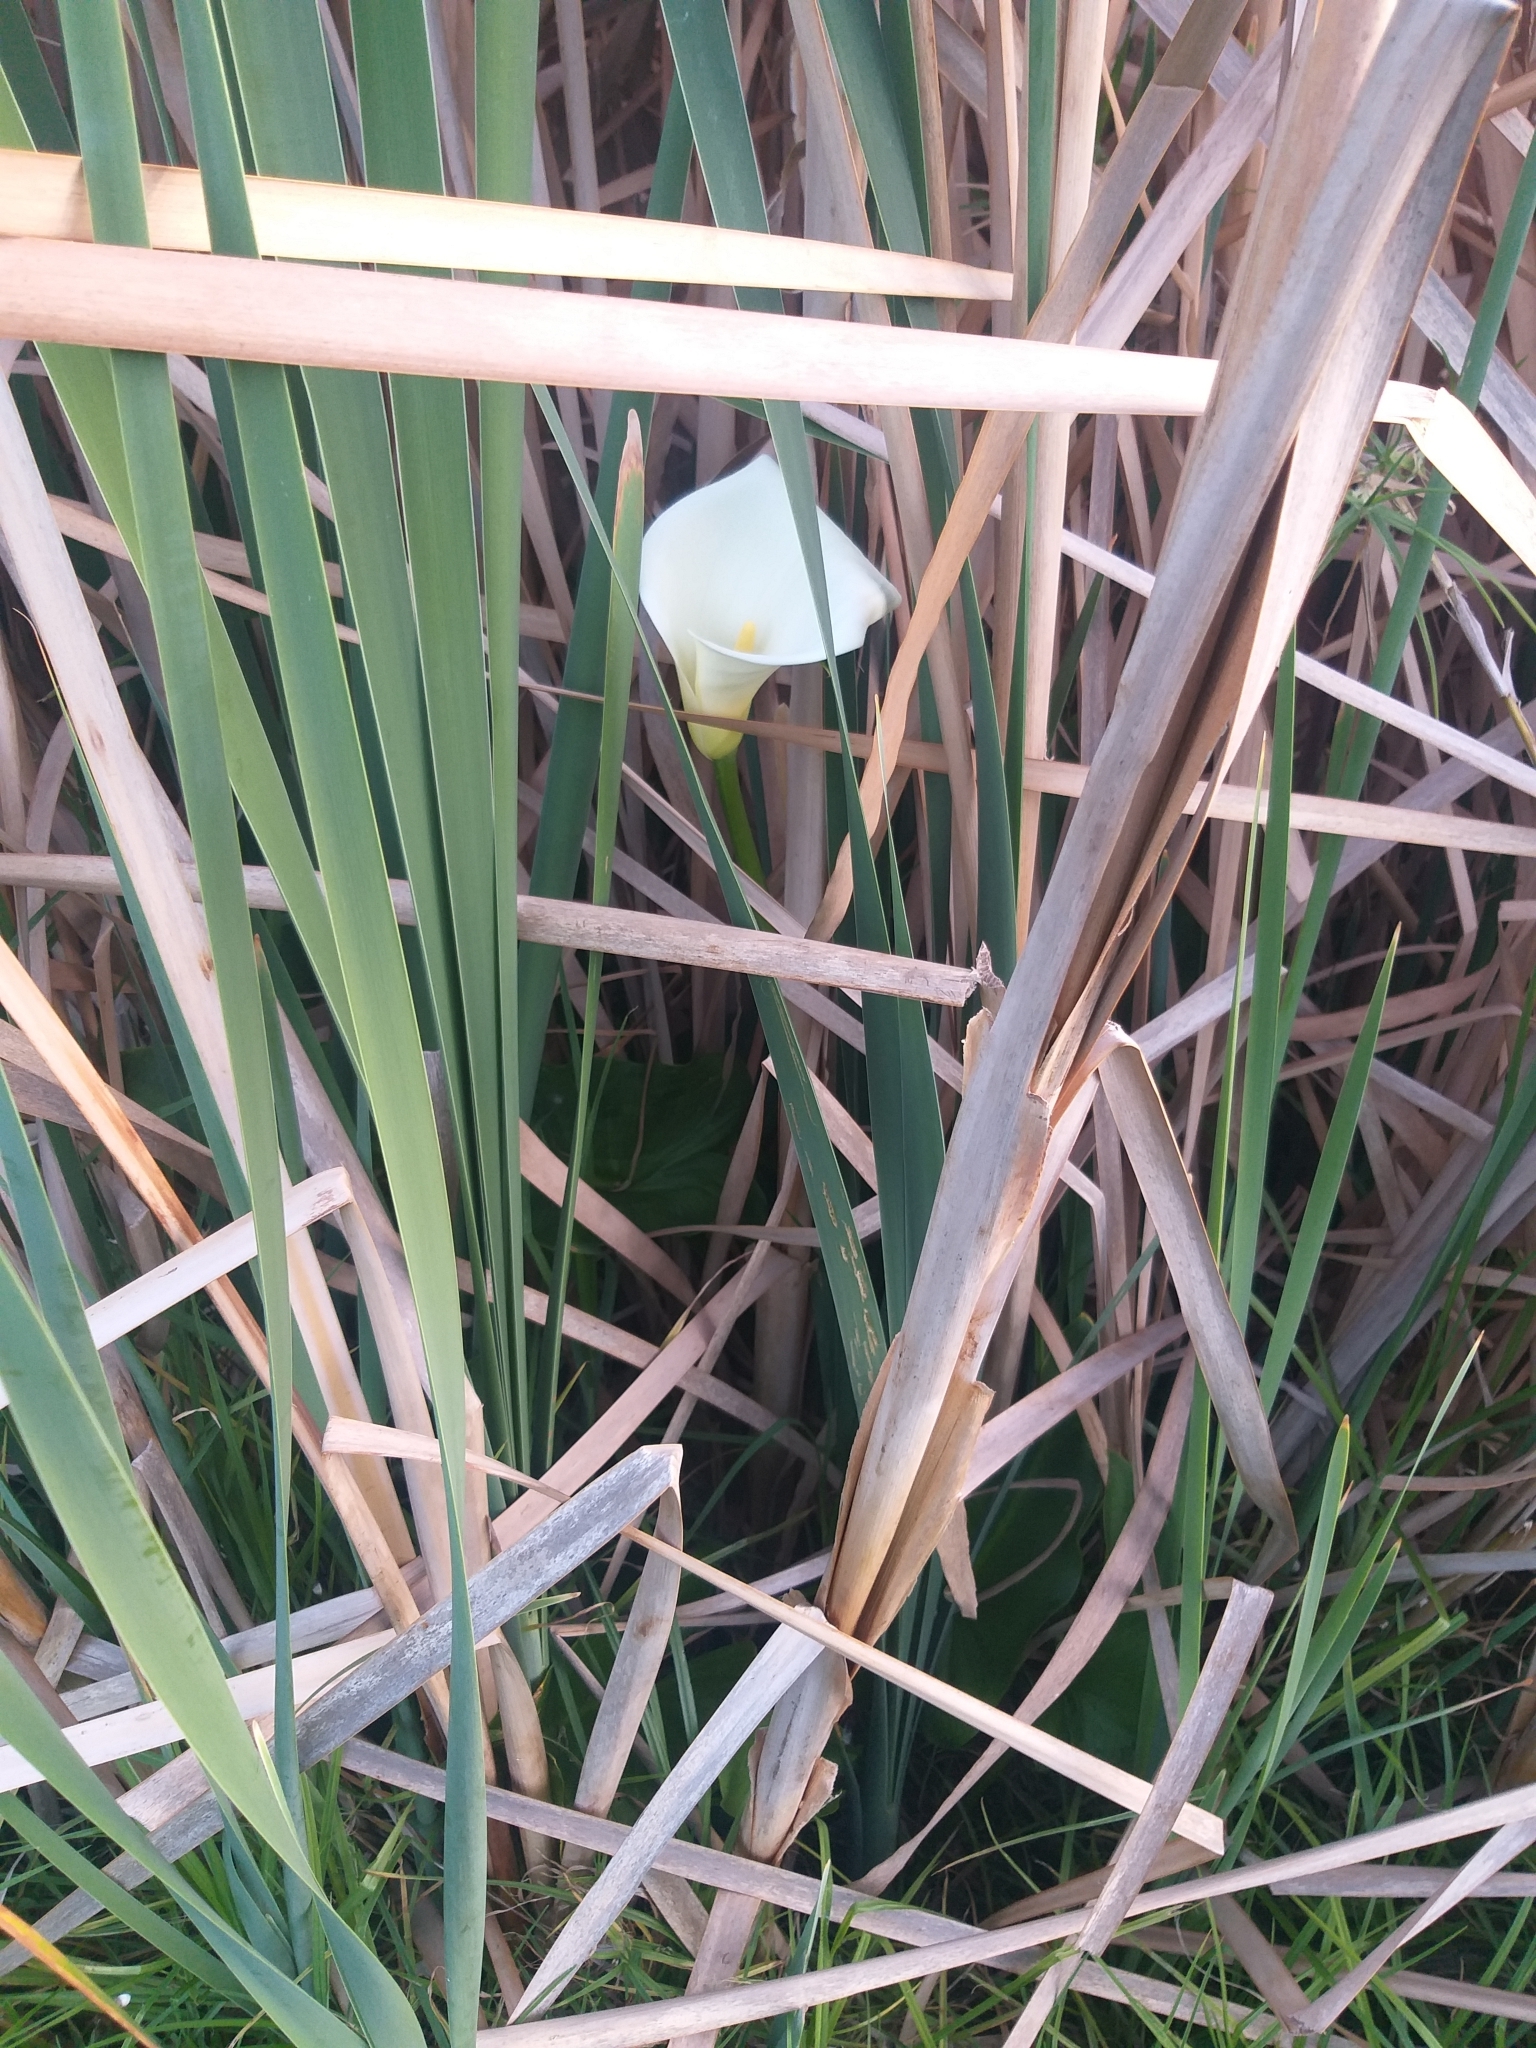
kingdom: Plantae
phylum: Tracheophyta
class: Liliopsida
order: Alismatales
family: Araceae
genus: Zantedeschia
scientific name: Zantedeschia aethiopica
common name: Altar-lily
